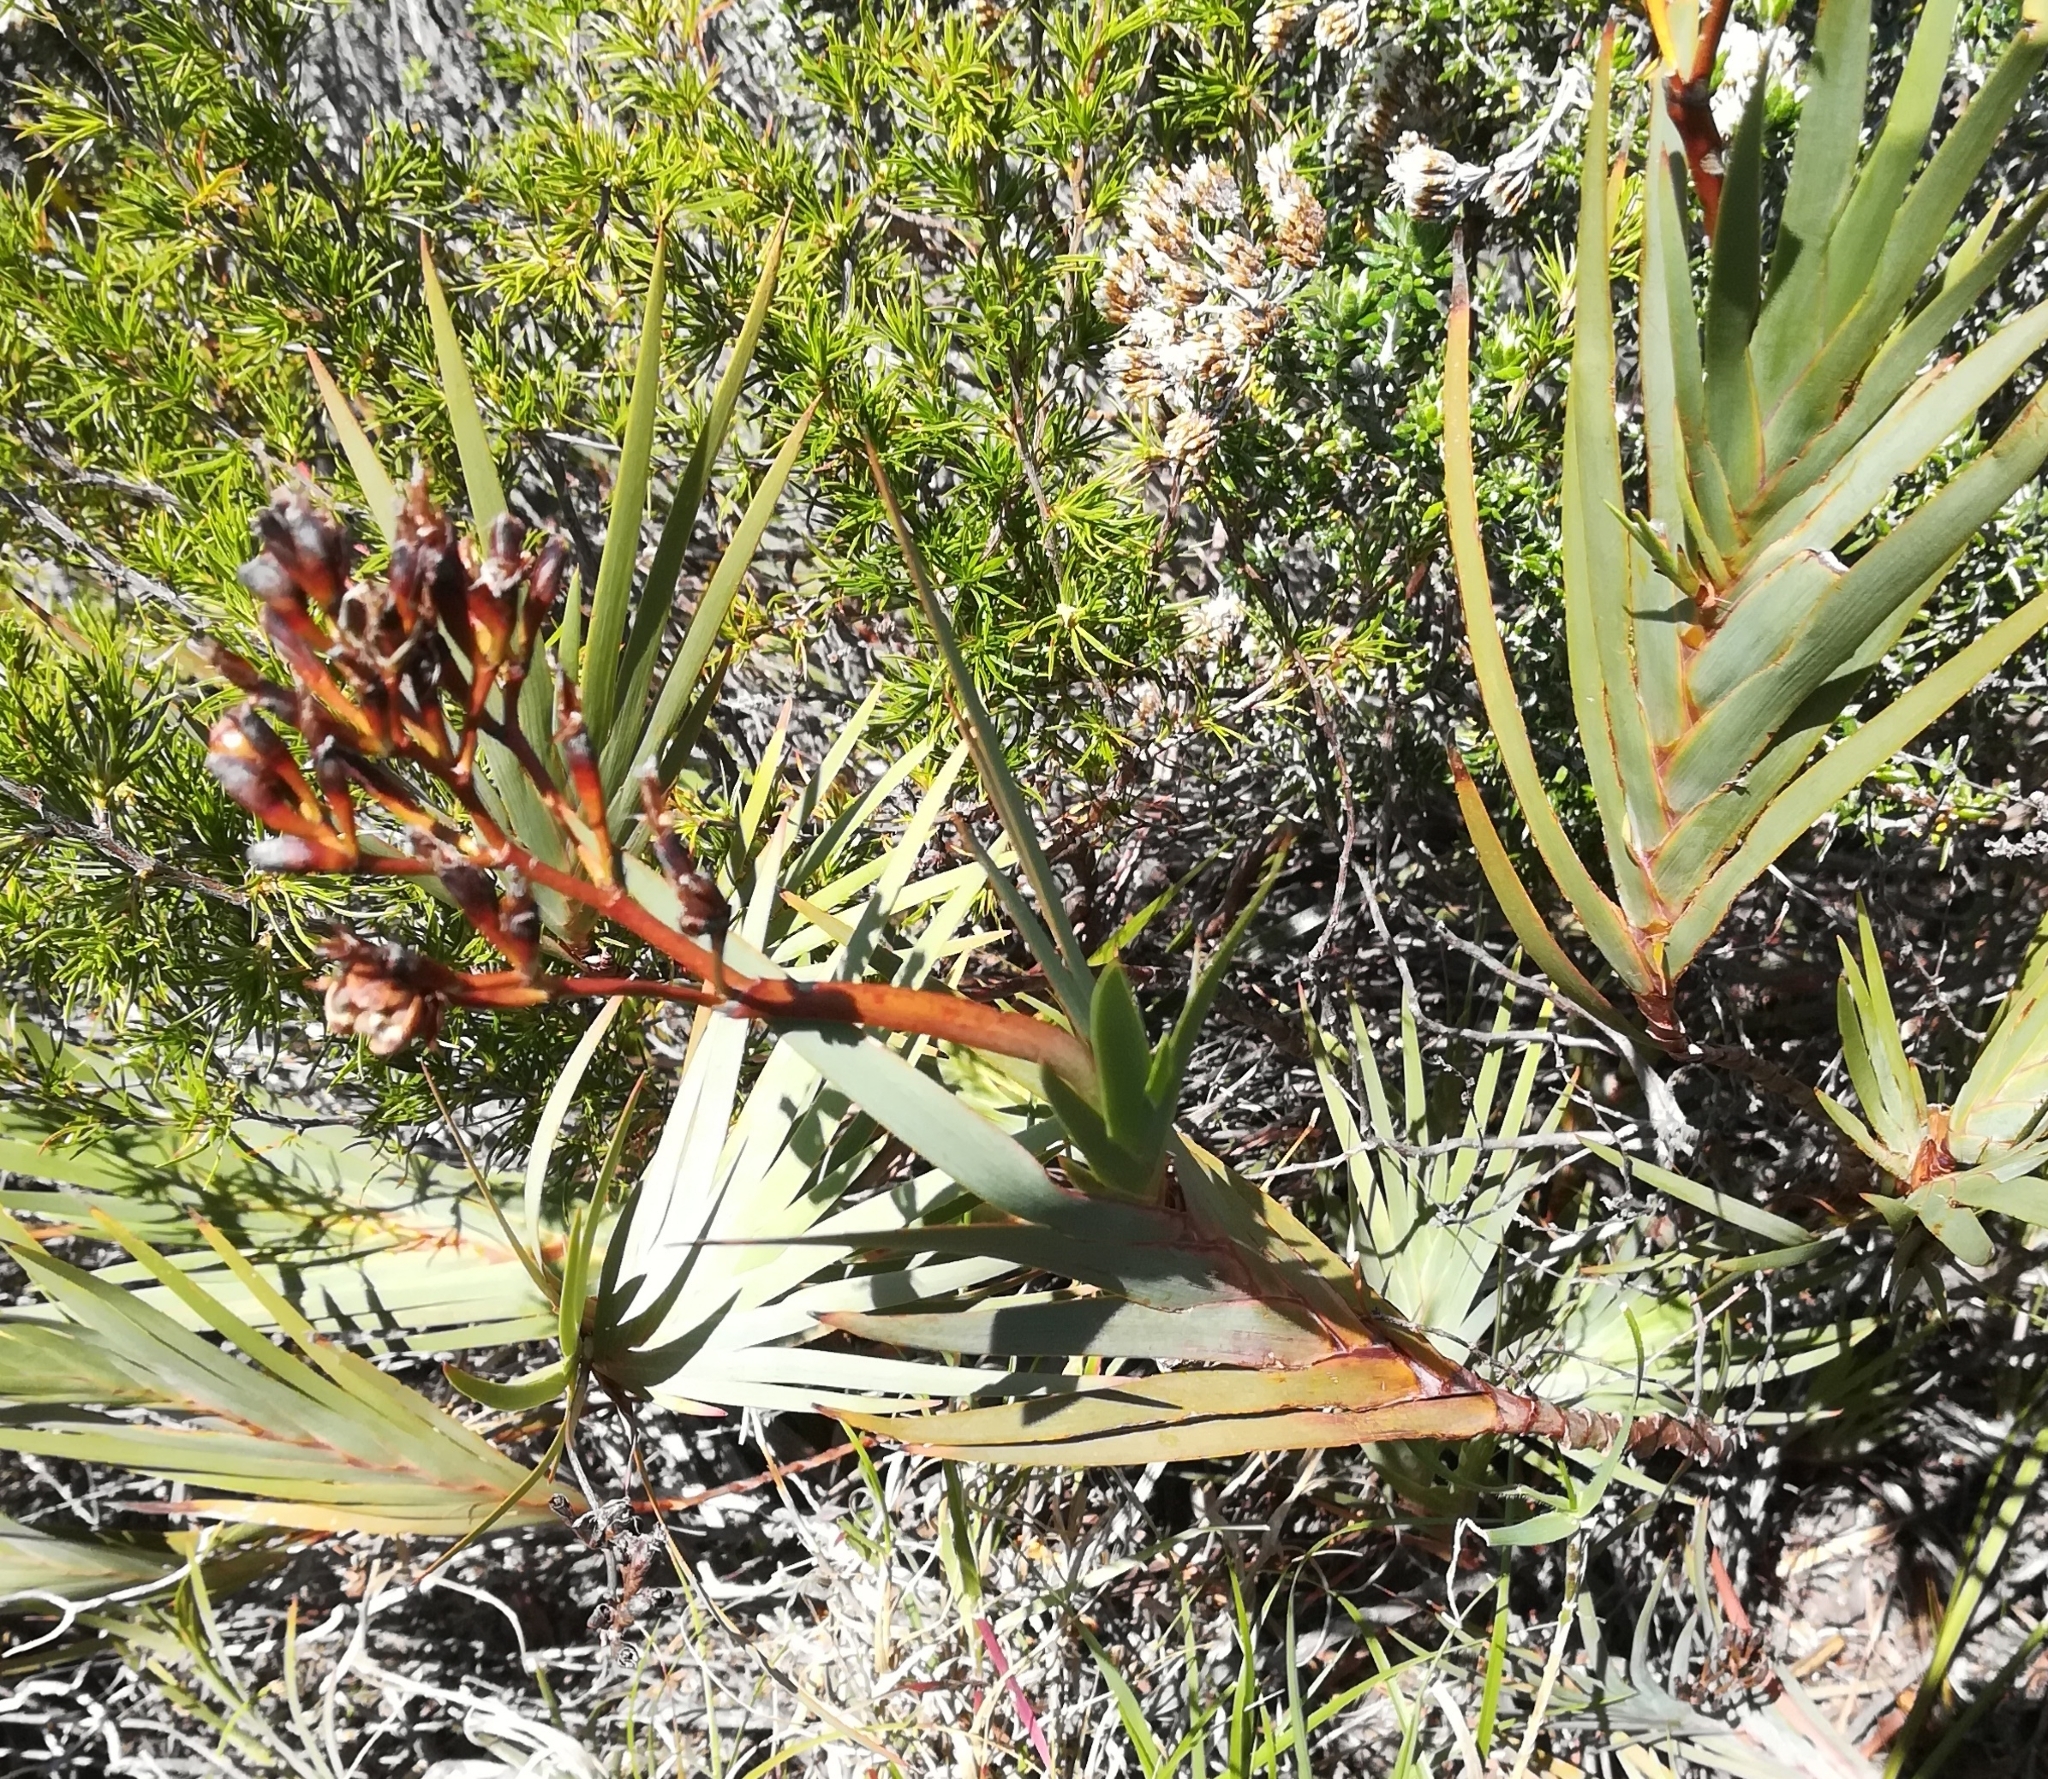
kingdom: Plantae
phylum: Tracheophyta
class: Liliopsida
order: Asparagales
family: Iridaceae
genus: Nivenia
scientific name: Nivenia stokoei
